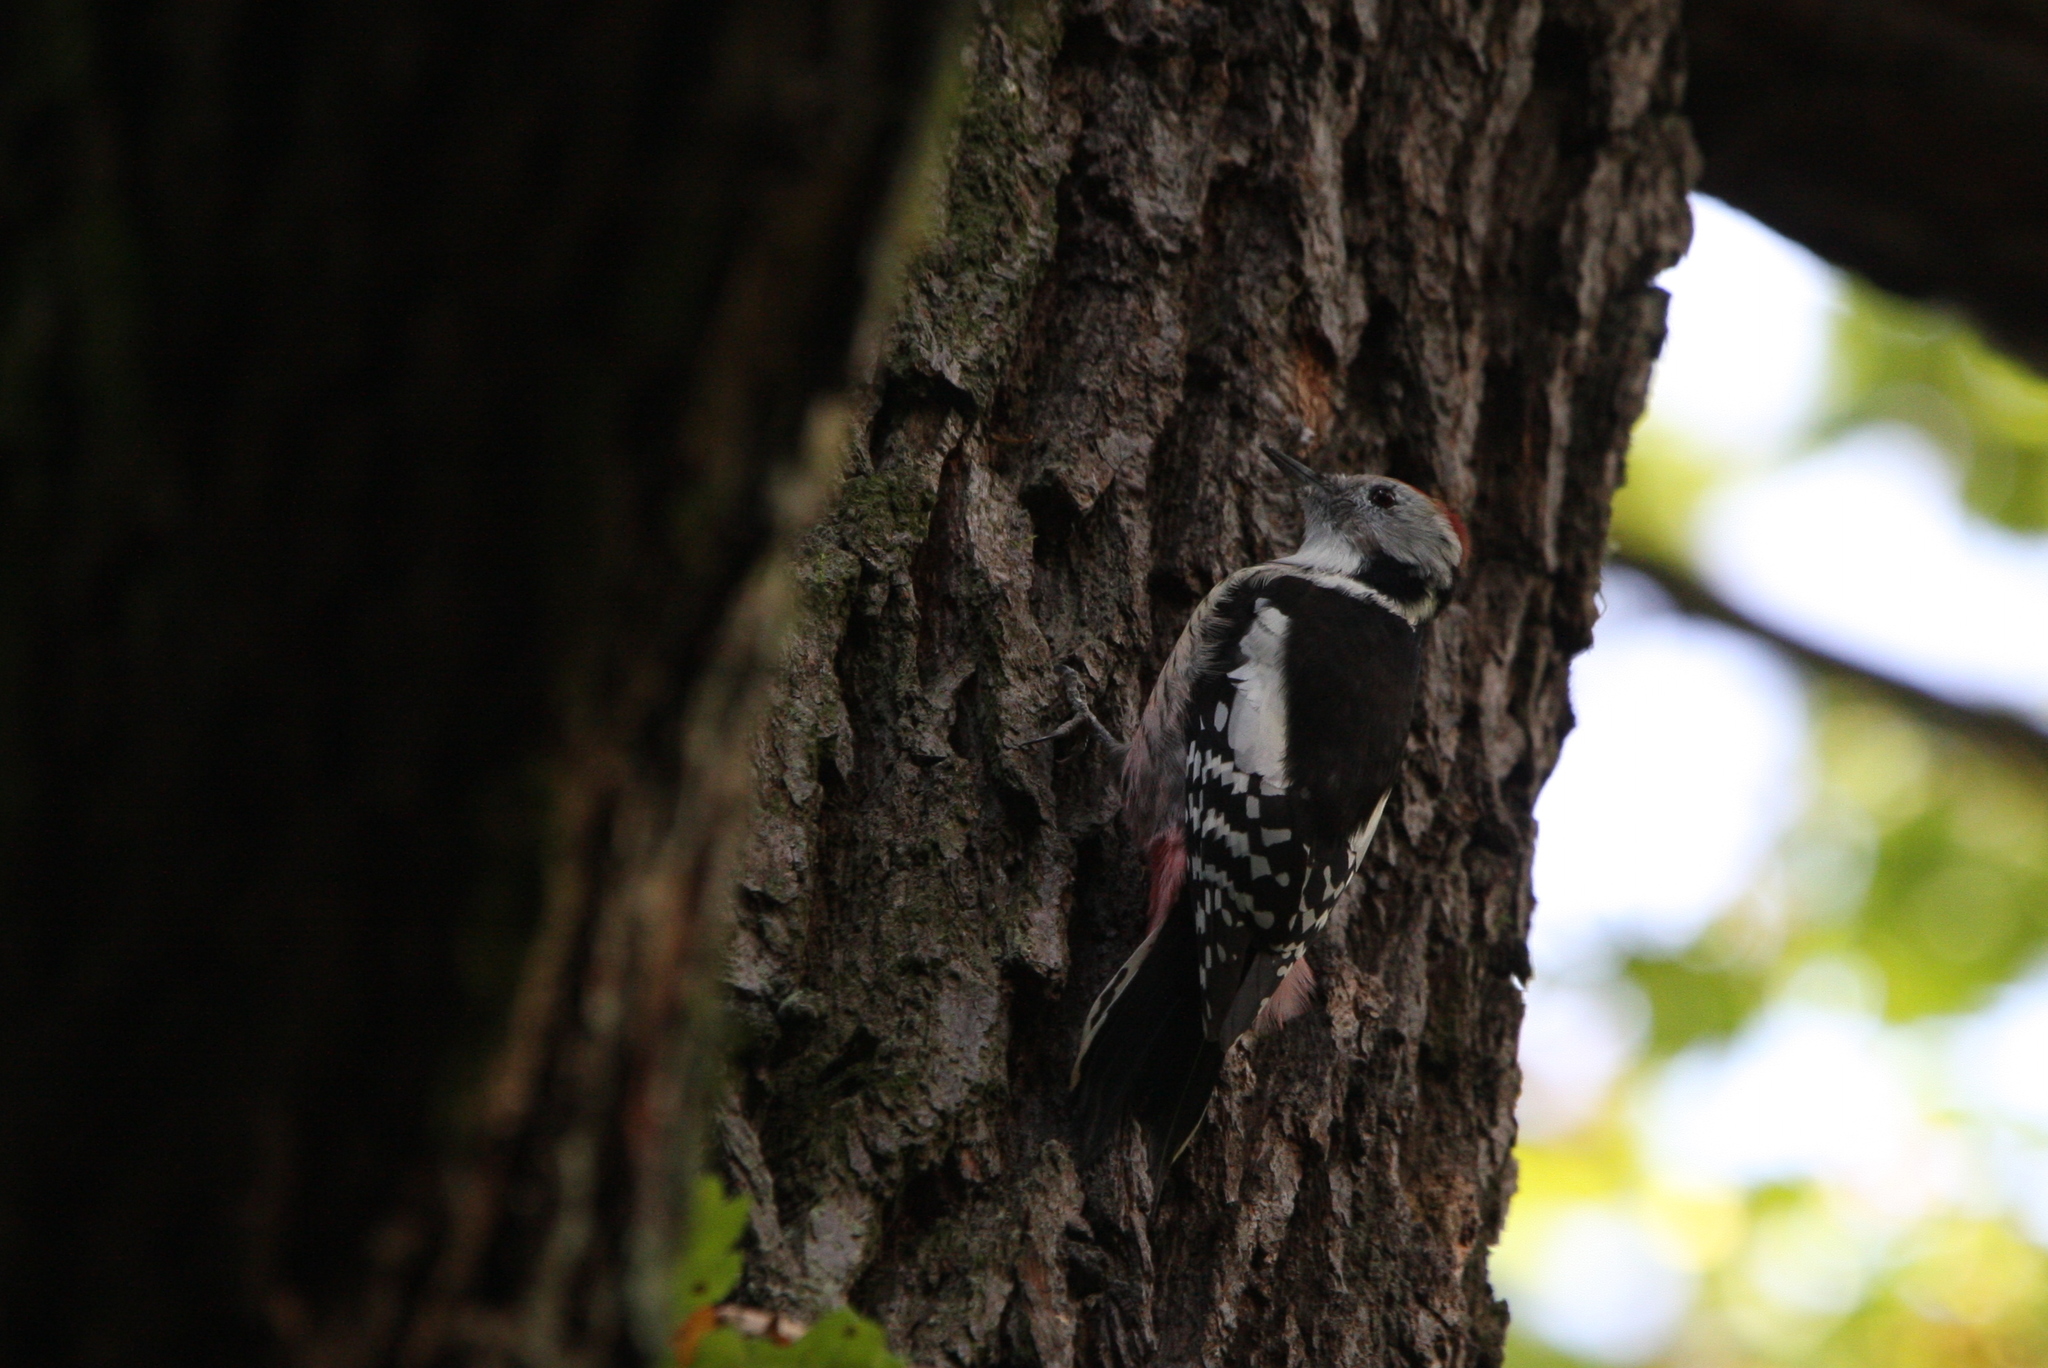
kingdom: Animalia
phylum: Chordata
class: Aves
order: Piciformes
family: Picidae
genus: Dendrocoptes
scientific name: Dendrocoptes medius
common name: Middle spotted woodpecker
